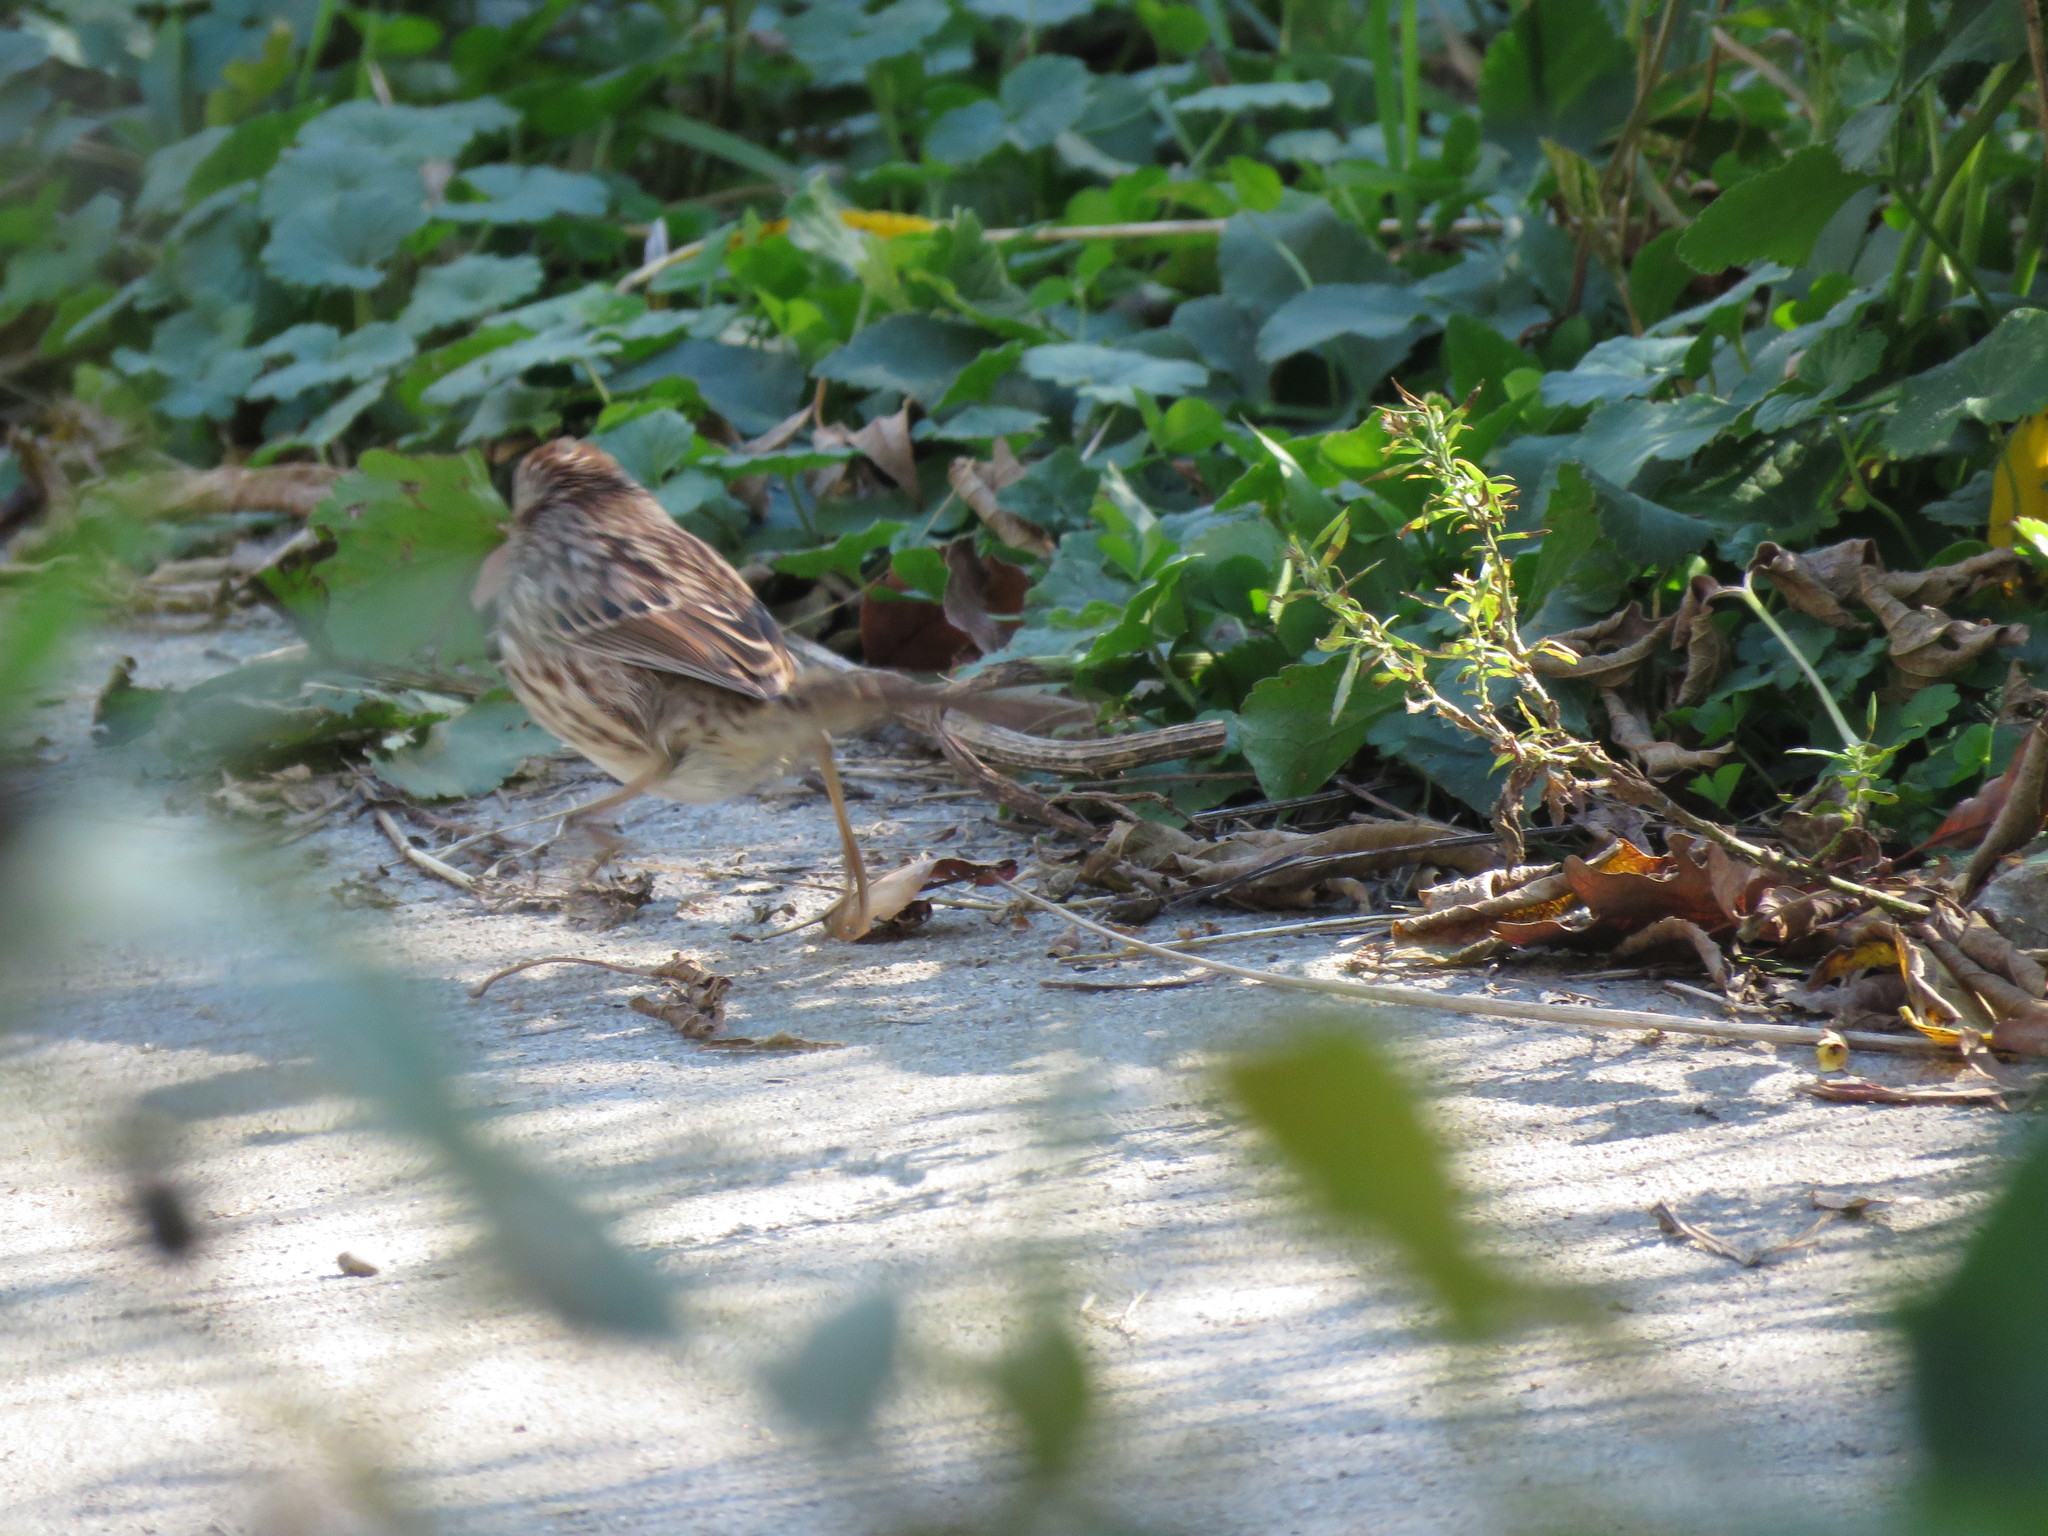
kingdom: Animalia
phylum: Chordata
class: Aves
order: Passeriformes
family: Passerellidae
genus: Melospiza
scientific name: Melospiza melodia
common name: Song sparrow
